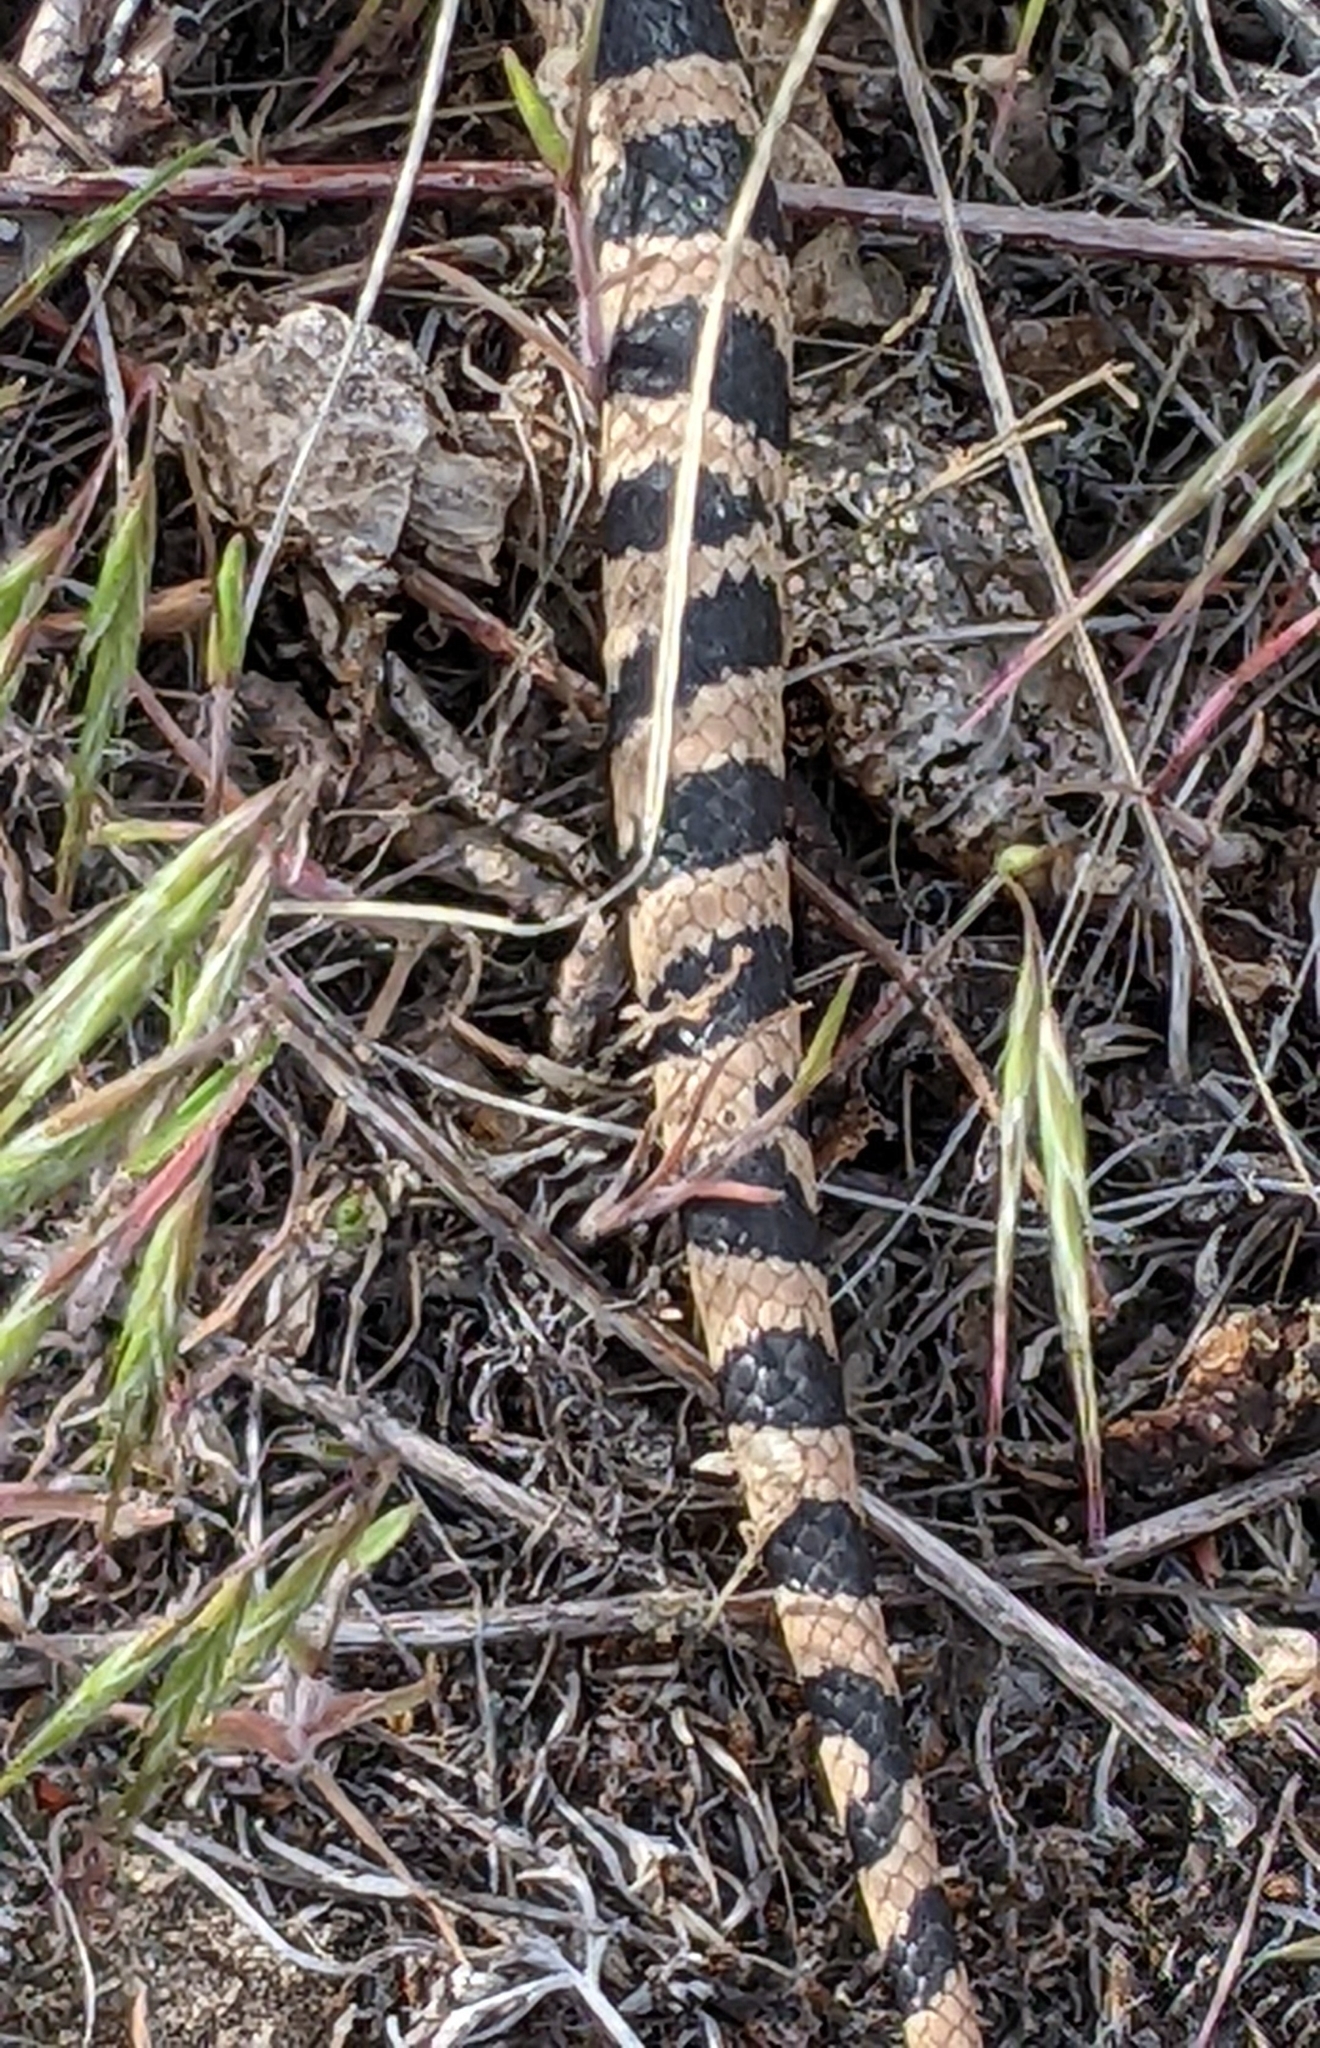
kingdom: Animalia
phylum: Chordata
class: Squamata
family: Colubridae
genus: Pituophis
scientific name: Pituophis catenifer
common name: Gopher snake
